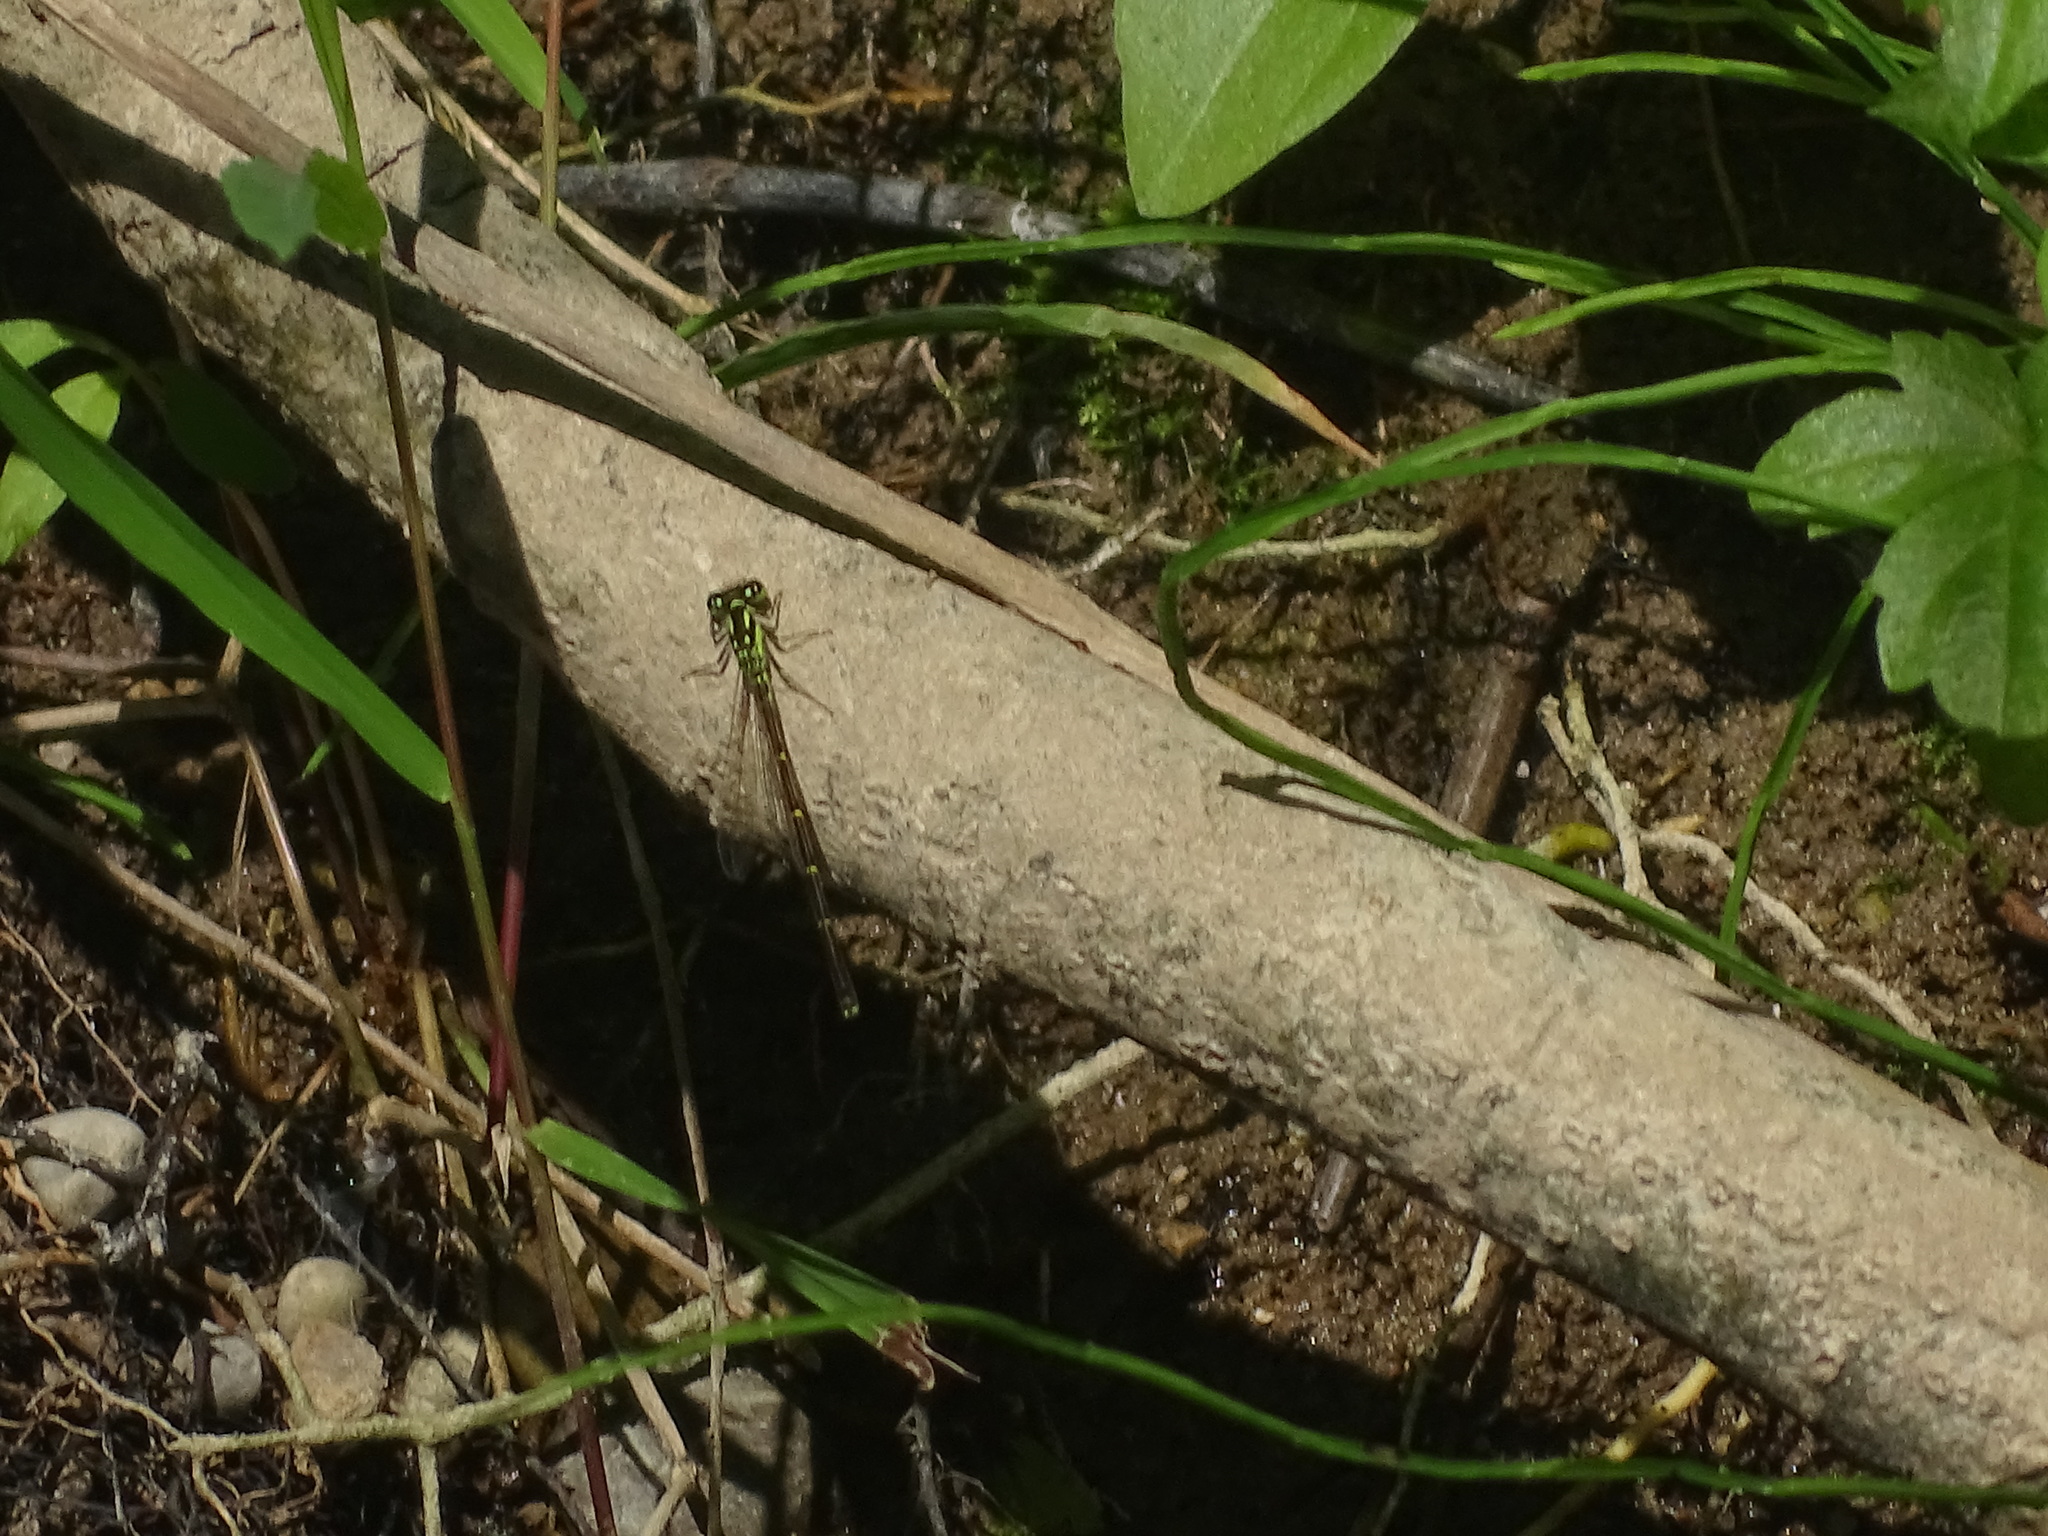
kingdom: Animalia
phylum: Arthropoda
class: Insecta
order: Odonata
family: Coenagrionidae
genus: Ischnura
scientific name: Ischnura posita
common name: Fragile forktail
